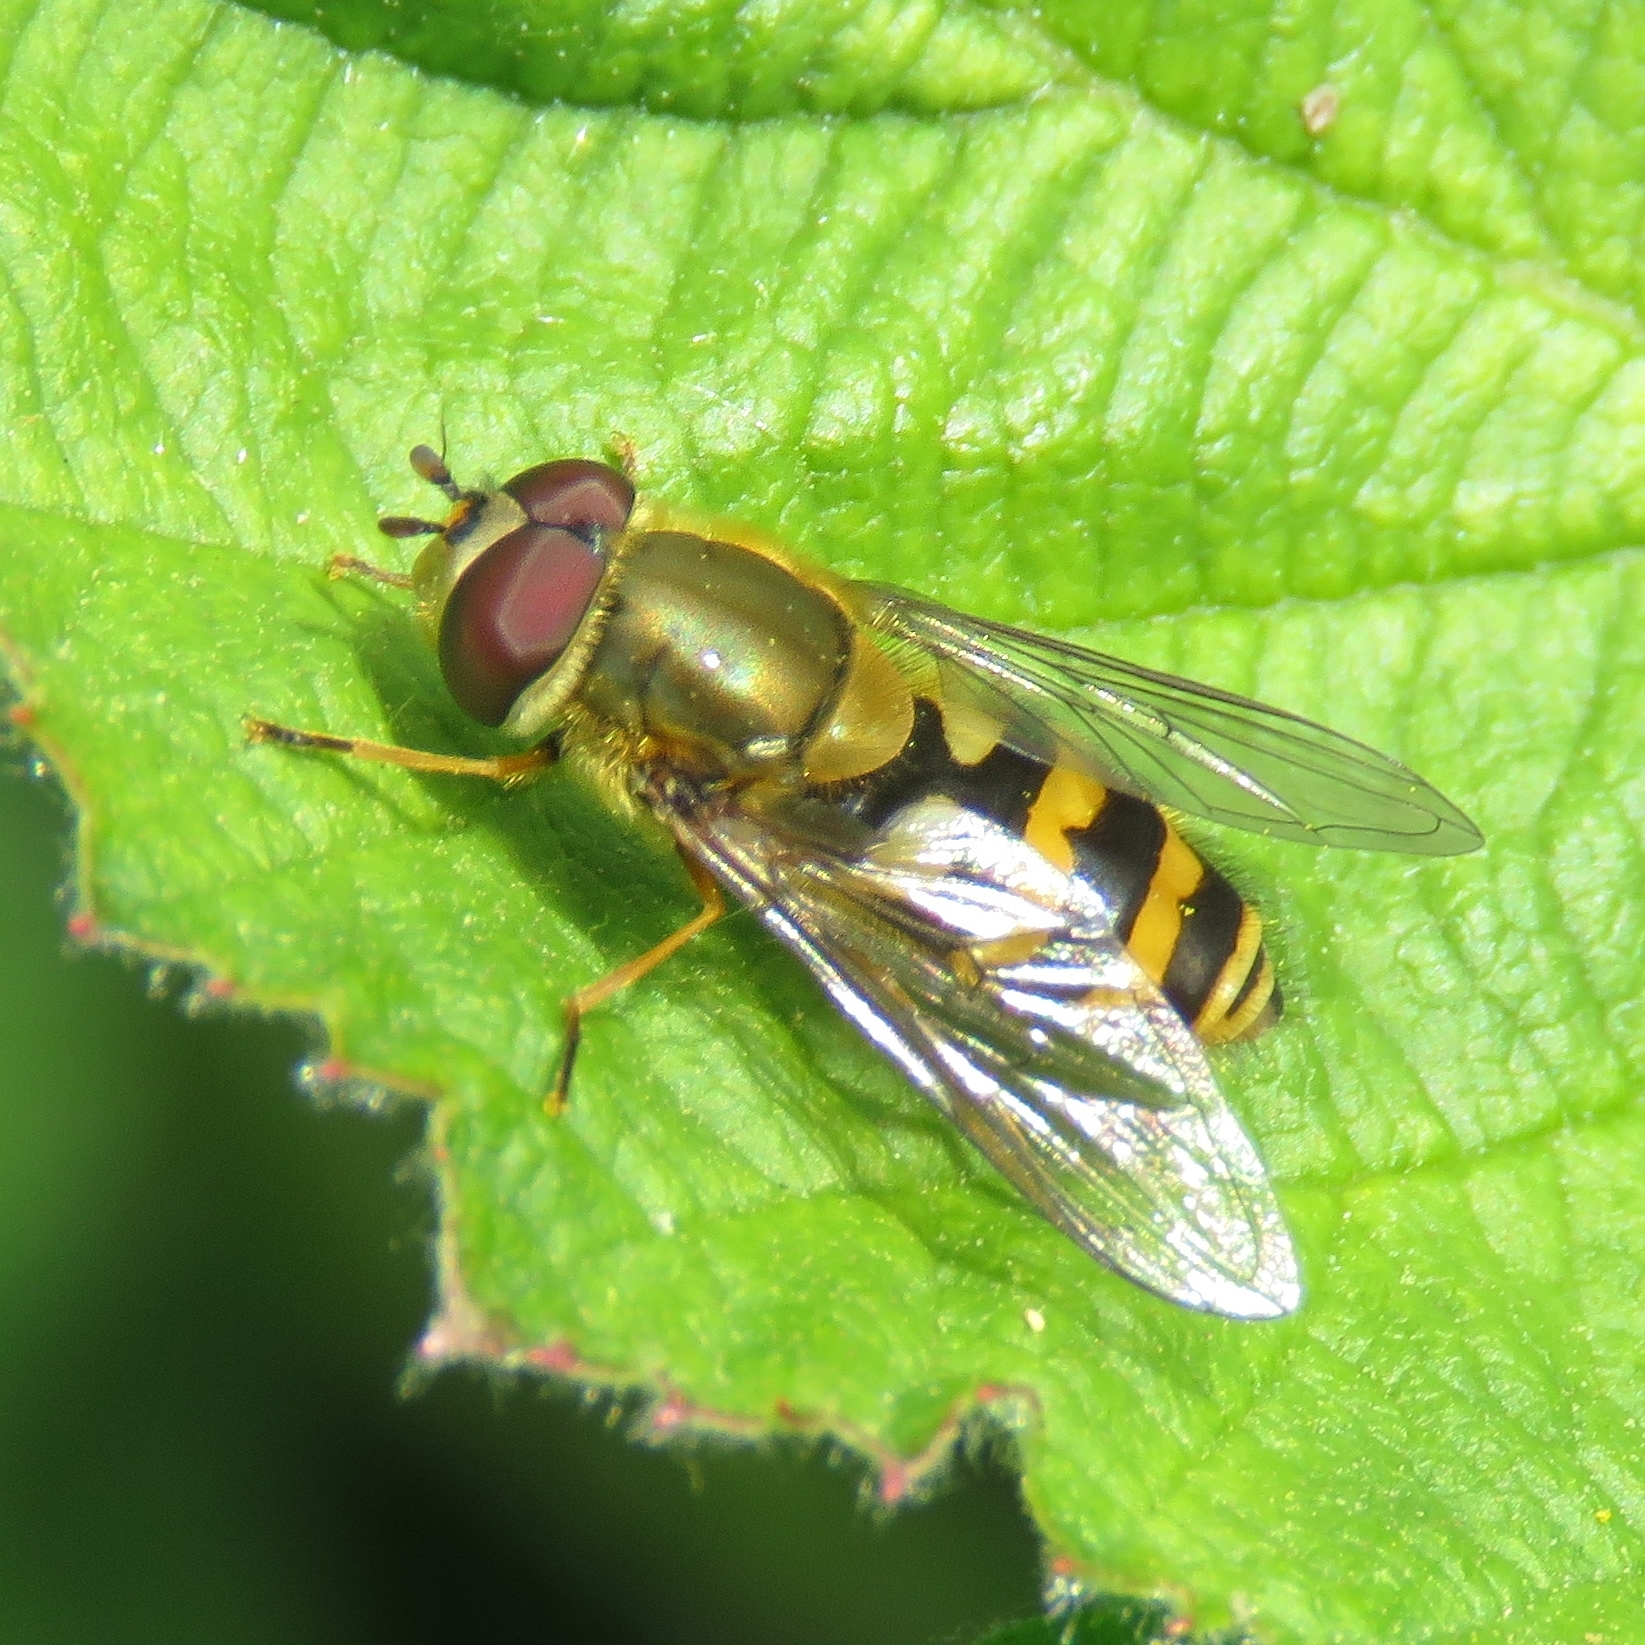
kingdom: Animalia
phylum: Arthropoda
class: Insecta
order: Diptera
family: Syrphidae
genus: Syrphus
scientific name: Syrphus
